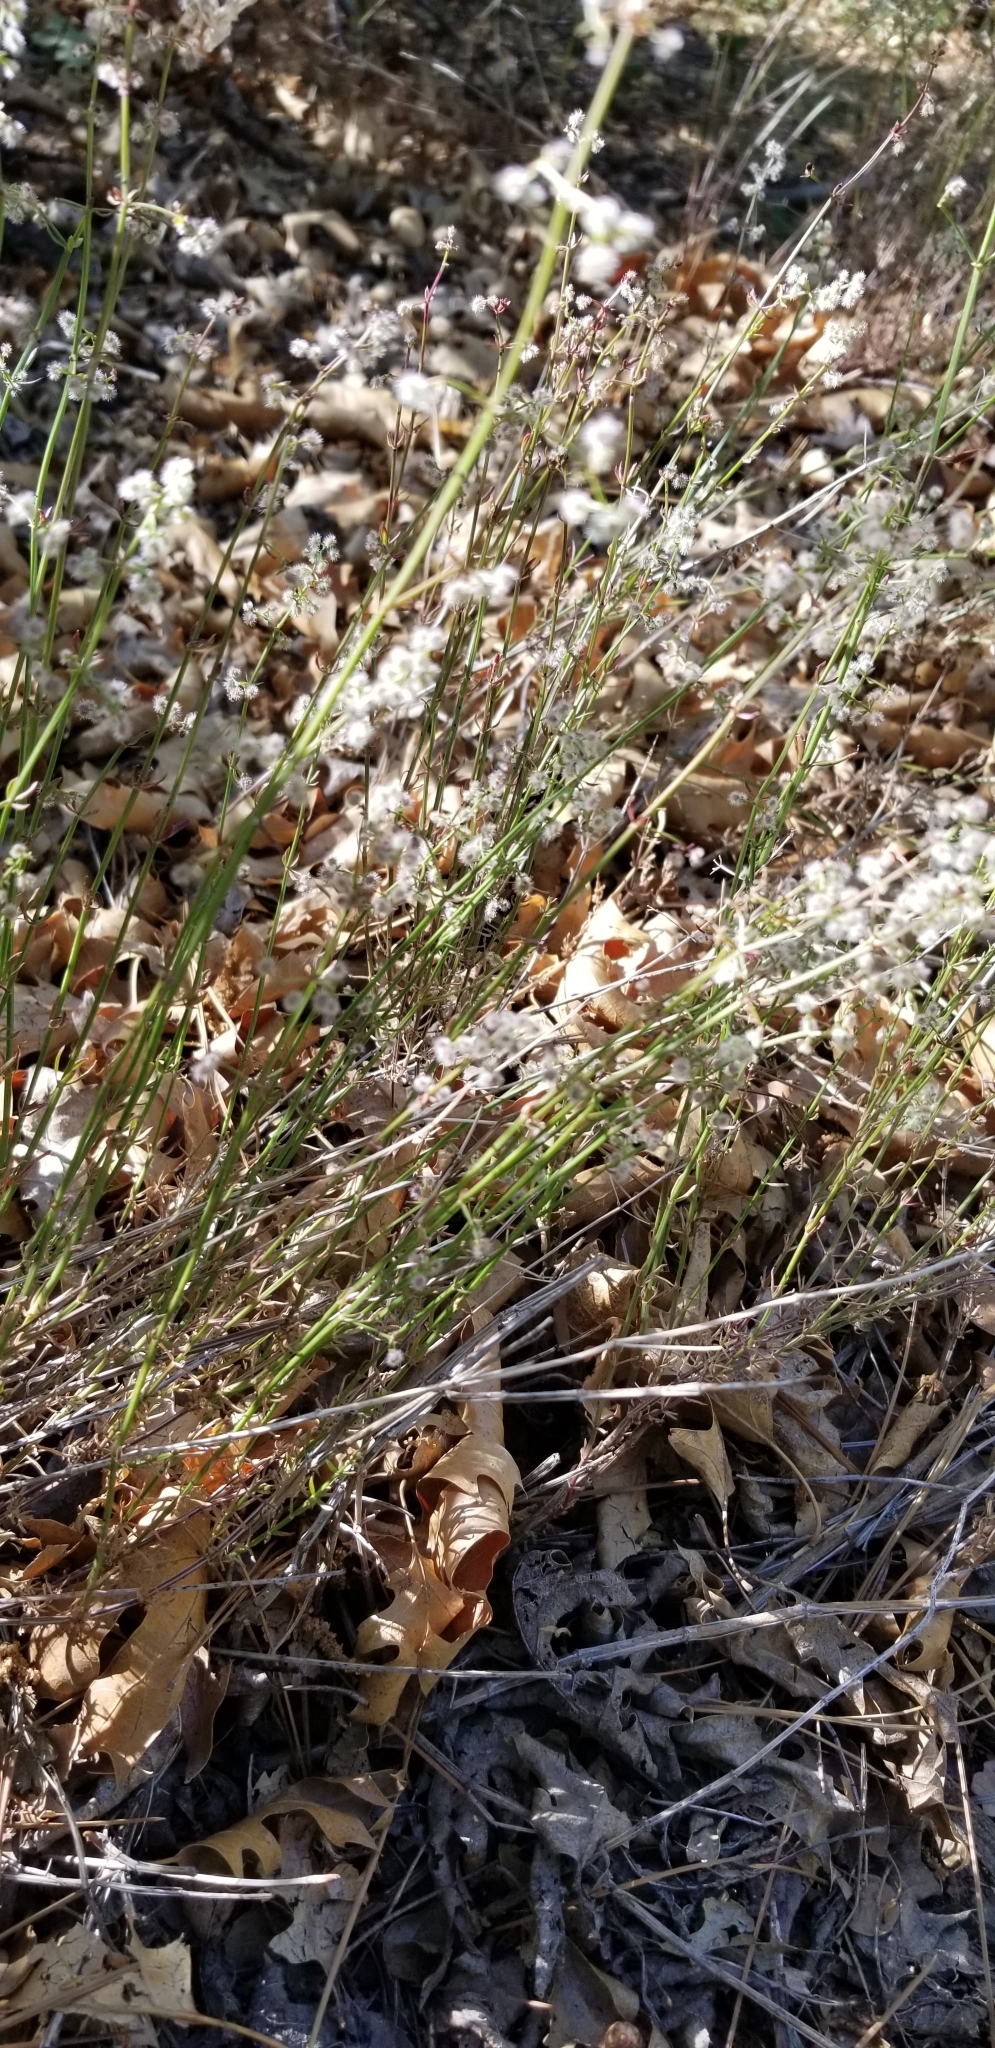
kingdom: Plantae
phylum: Tracheophyta
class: Magnoliopsida
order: Gentianales
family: Rubiaceae
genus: Galium
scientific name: Galium angustifolium
